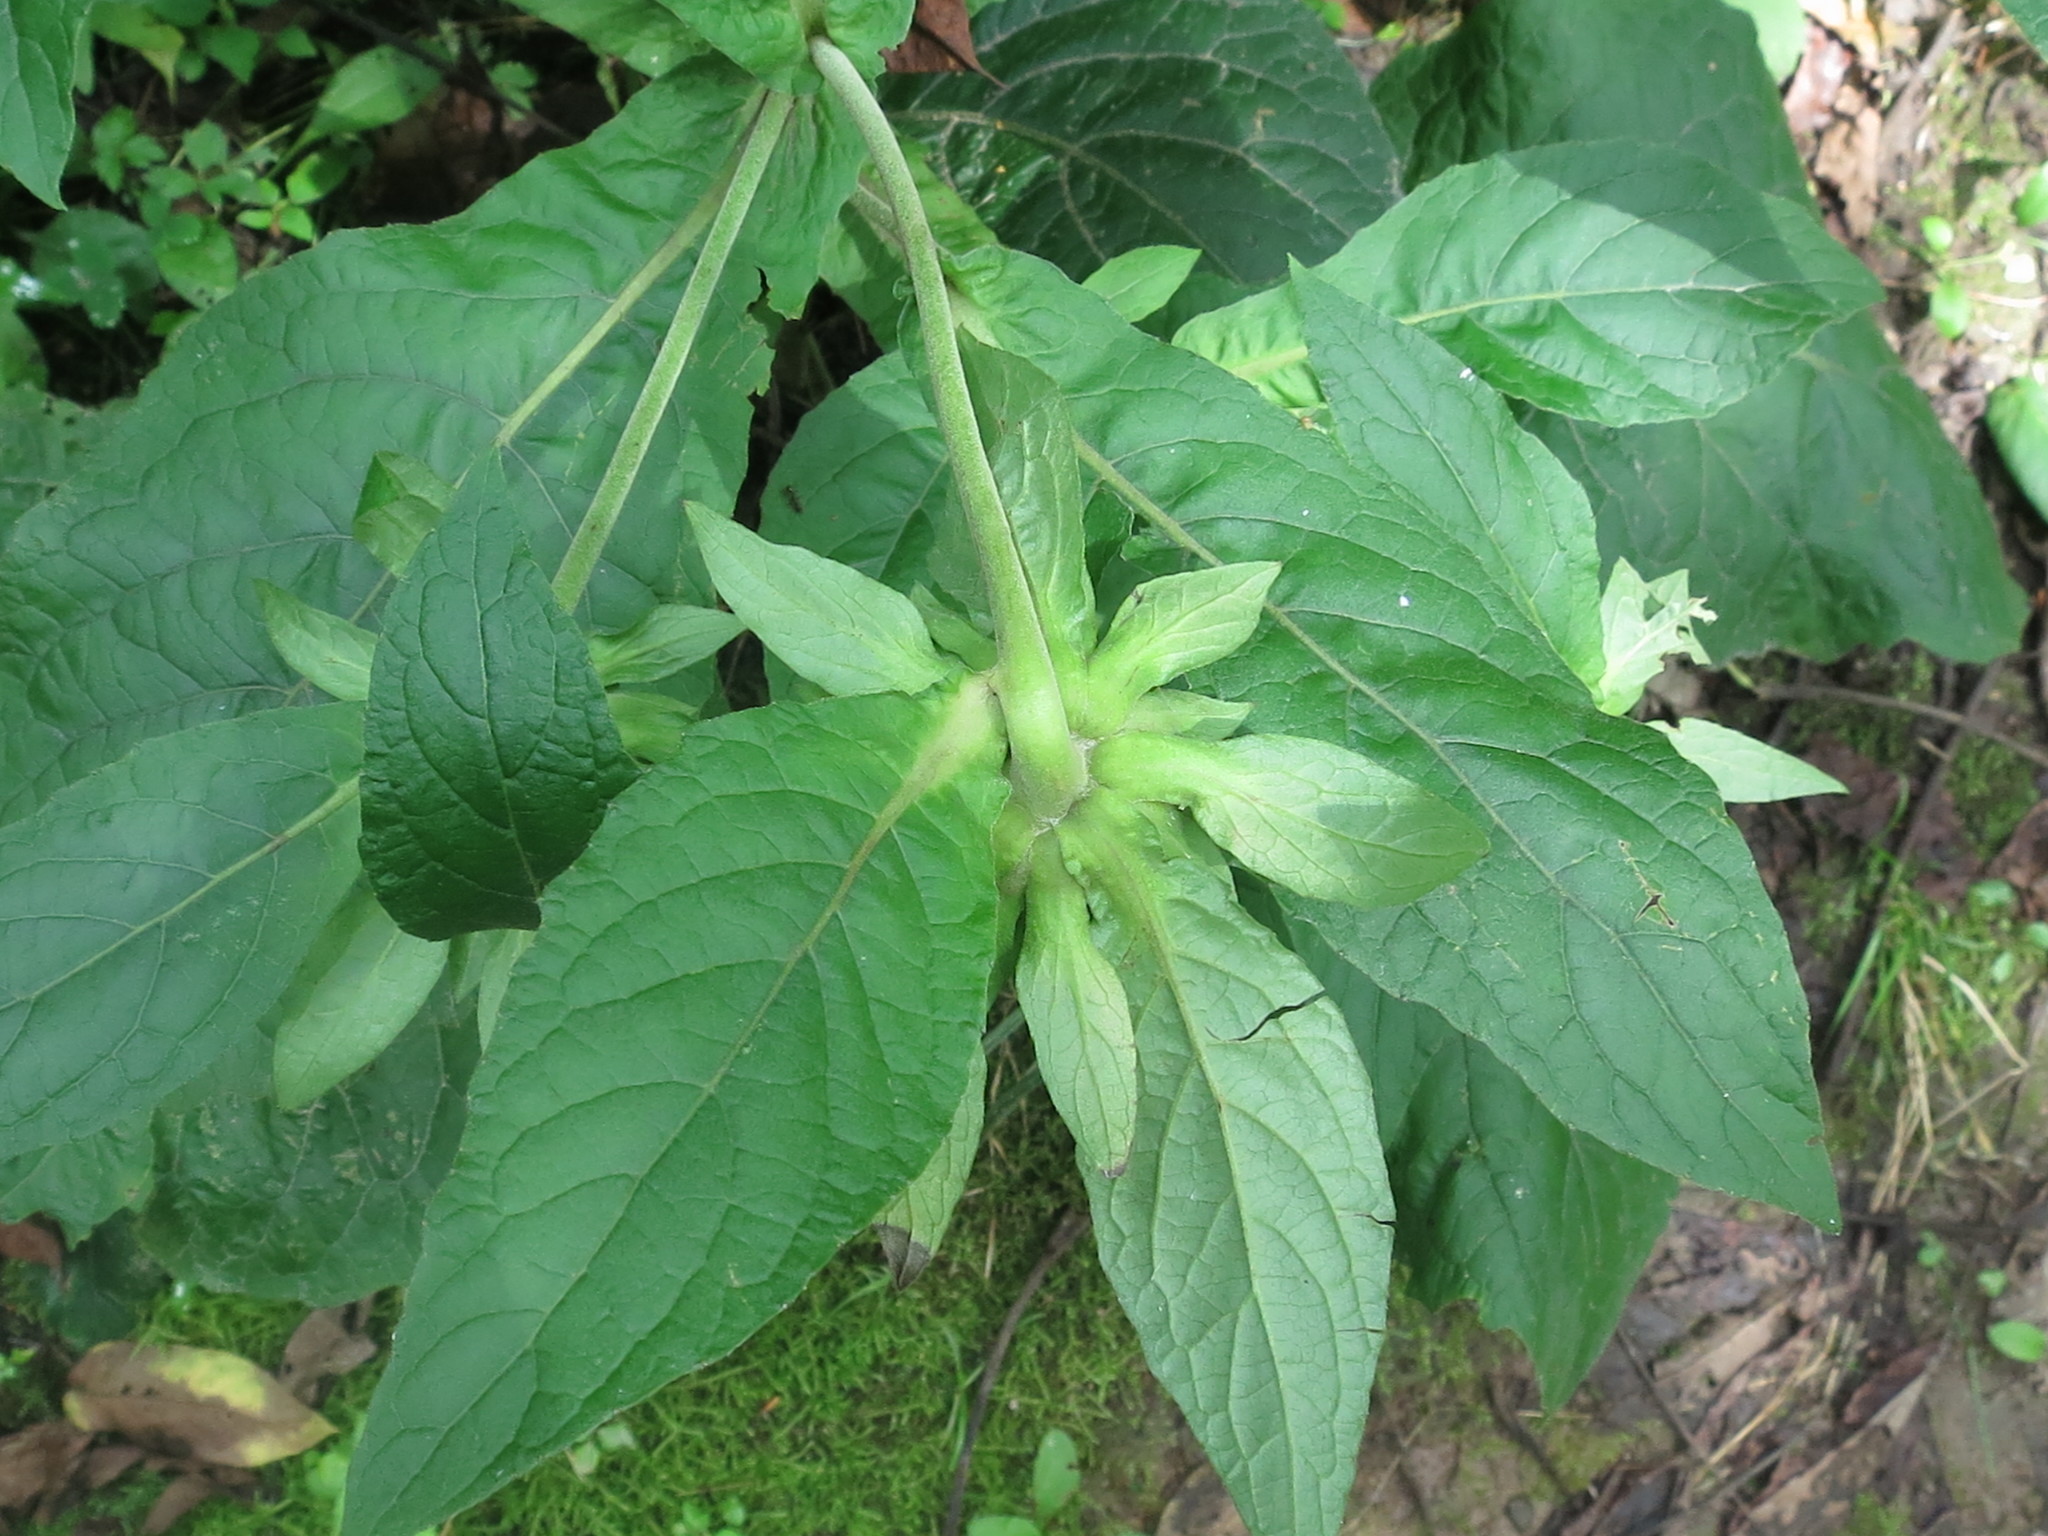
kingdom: Plantae
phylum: Tracheophyta
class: Magnoliopsida
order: Asterales
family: Asteraceae
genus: Carpesium
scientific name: Carpesium macrocephalum
